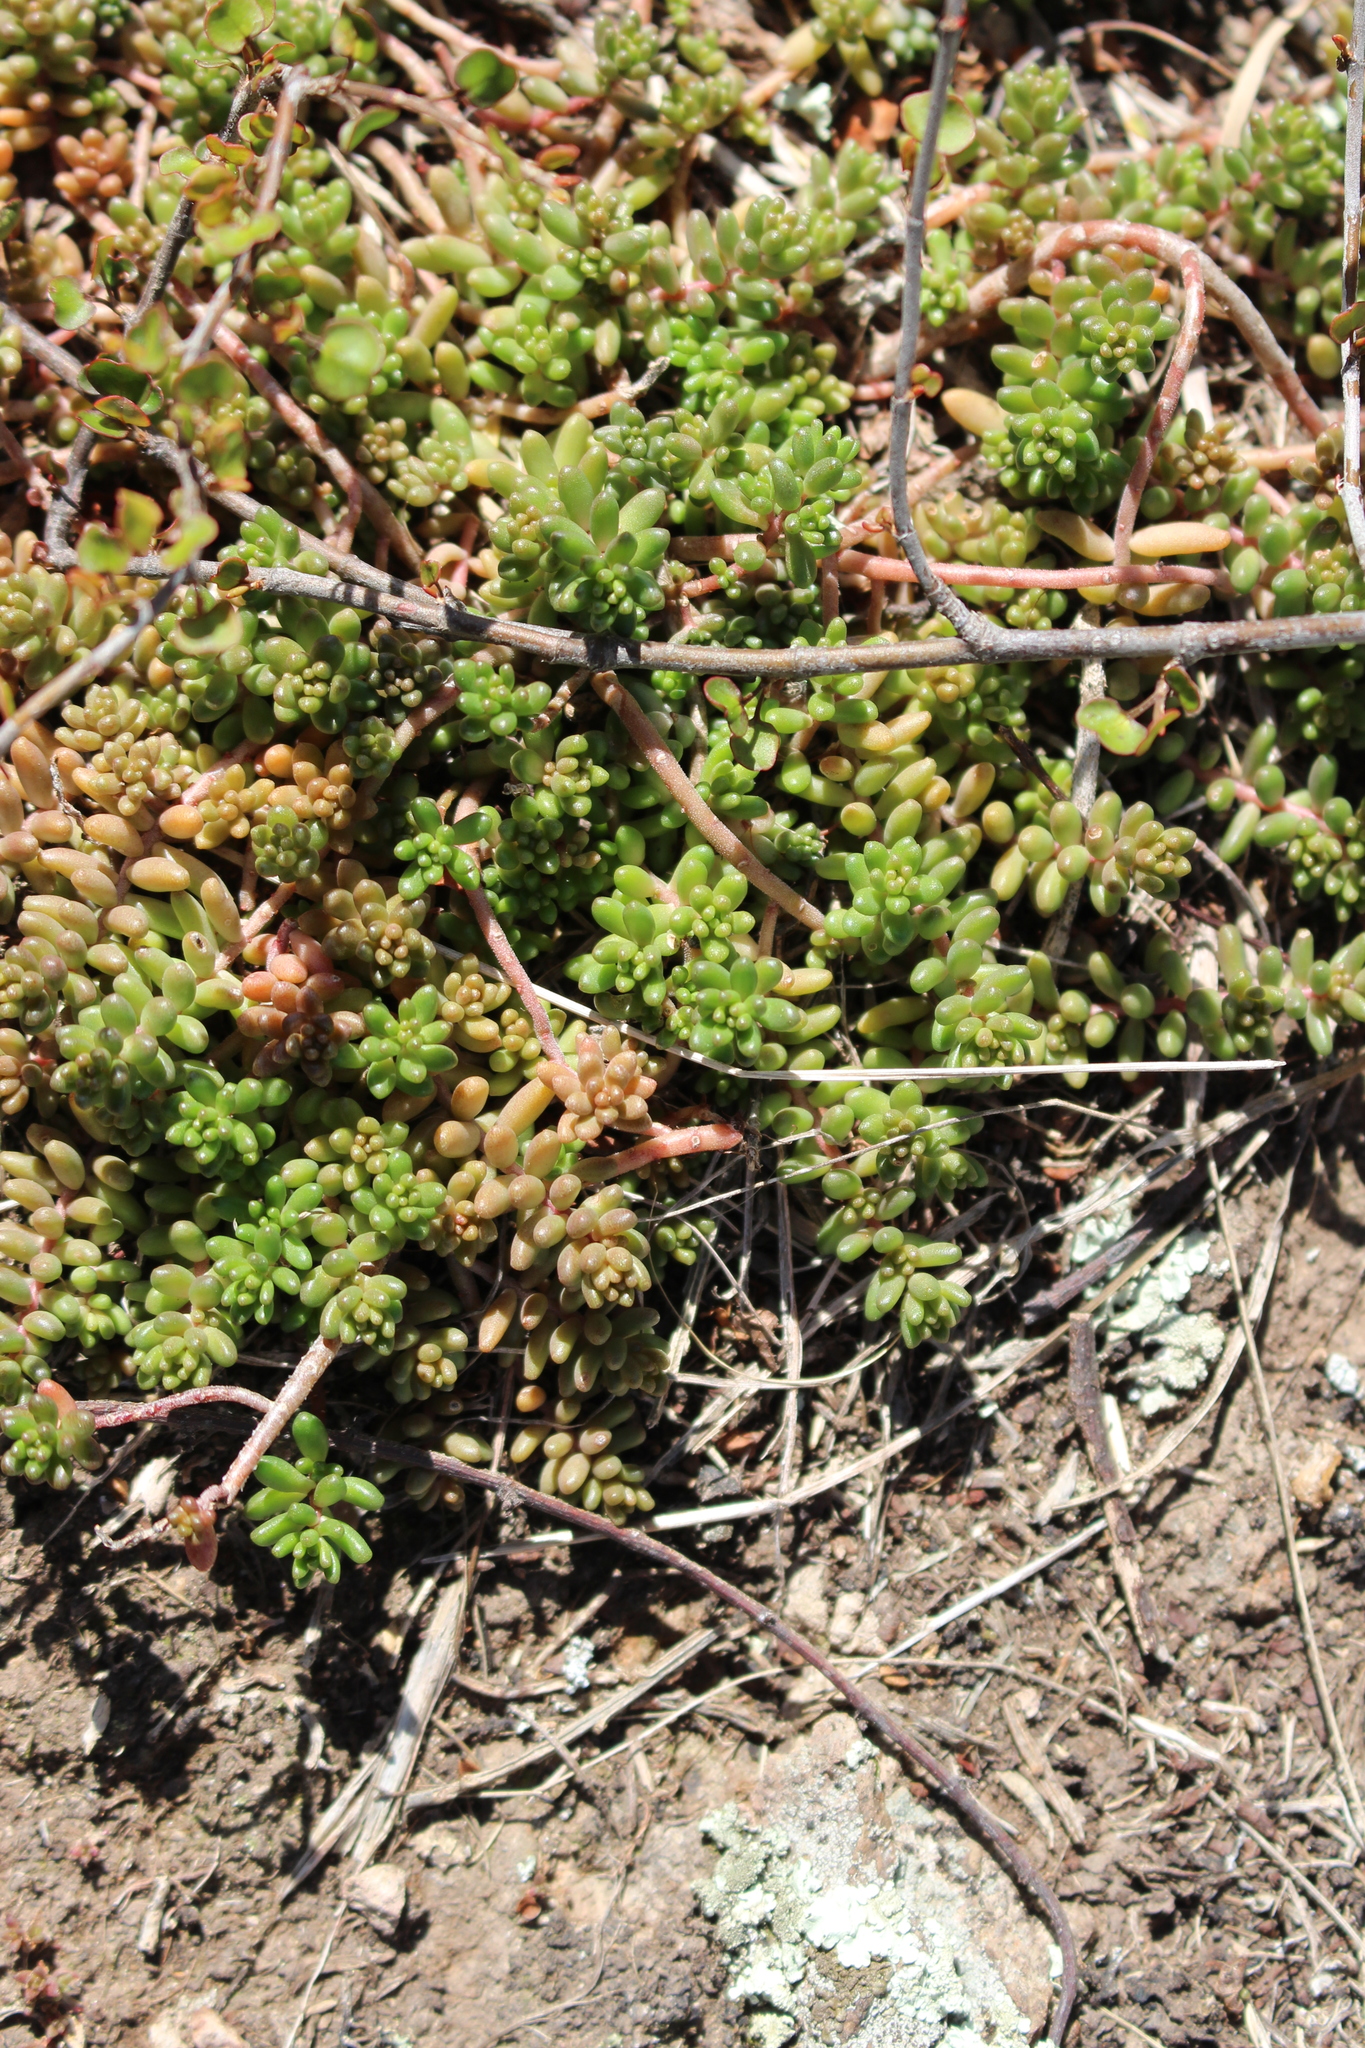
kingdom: Plantae
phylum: Tracheophyta
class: Magnoliopsida
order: Saxifragales
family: Crassulaceae
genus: Sedum
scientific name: Sedum album
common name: White stonecrop
